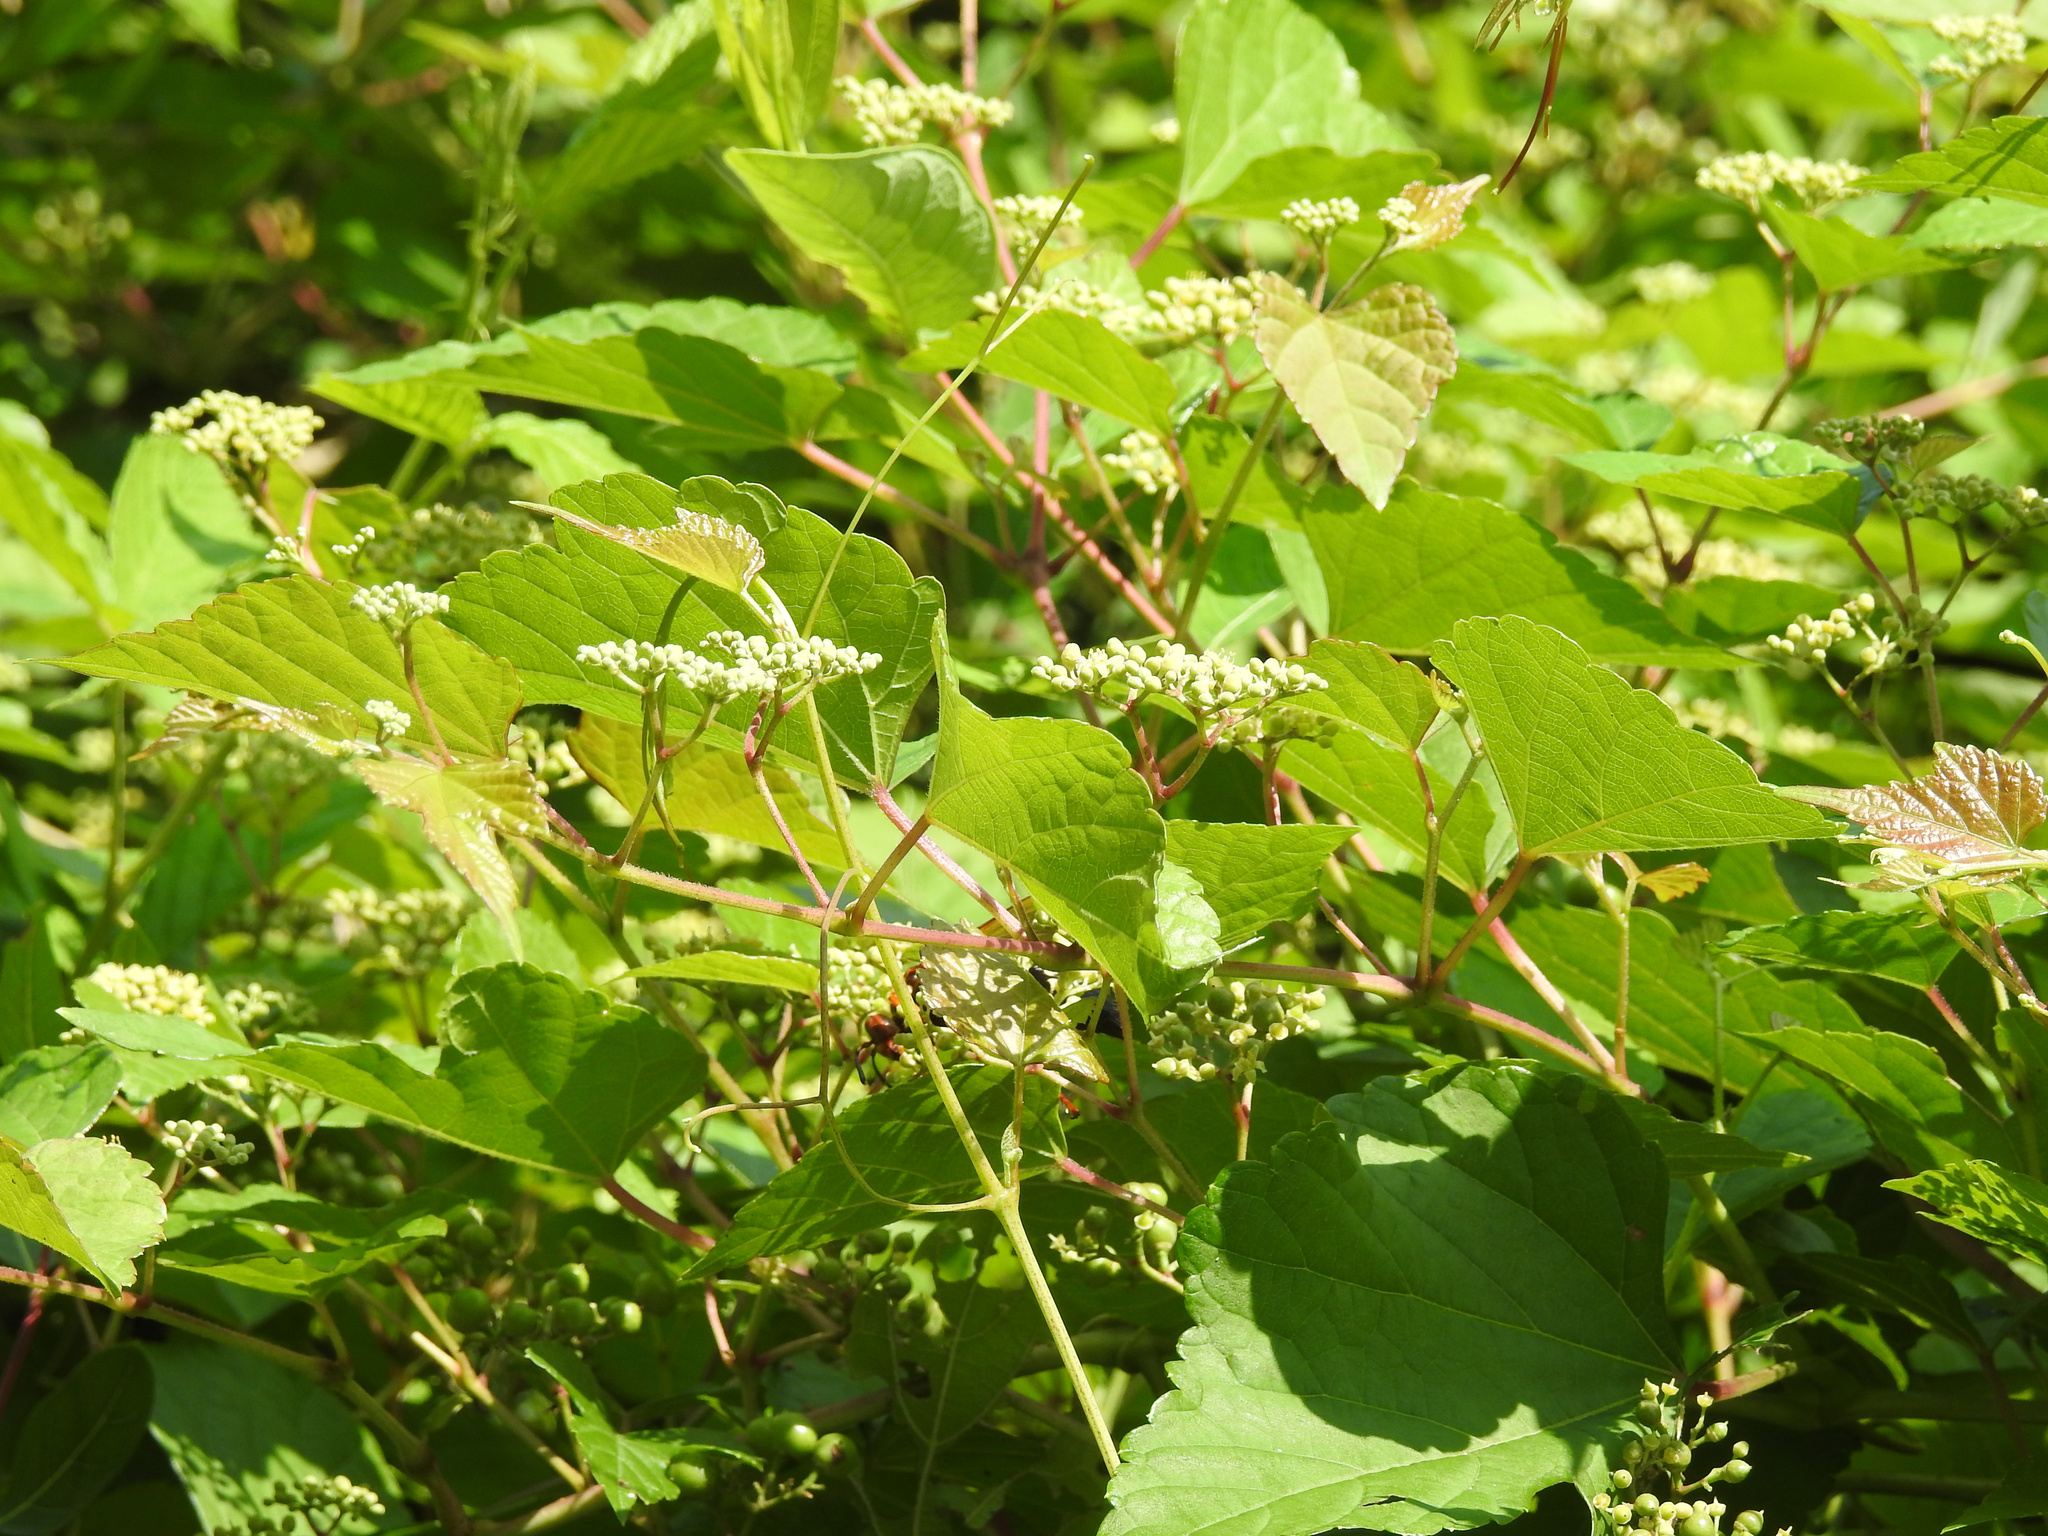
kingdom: Plantae
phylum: Tracheophyta
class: Magnoliopsida
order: Vitales
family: Vitaceae
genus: Ampelopsis
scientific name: Ampelopsis glandulosa
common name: Amur peppervine
